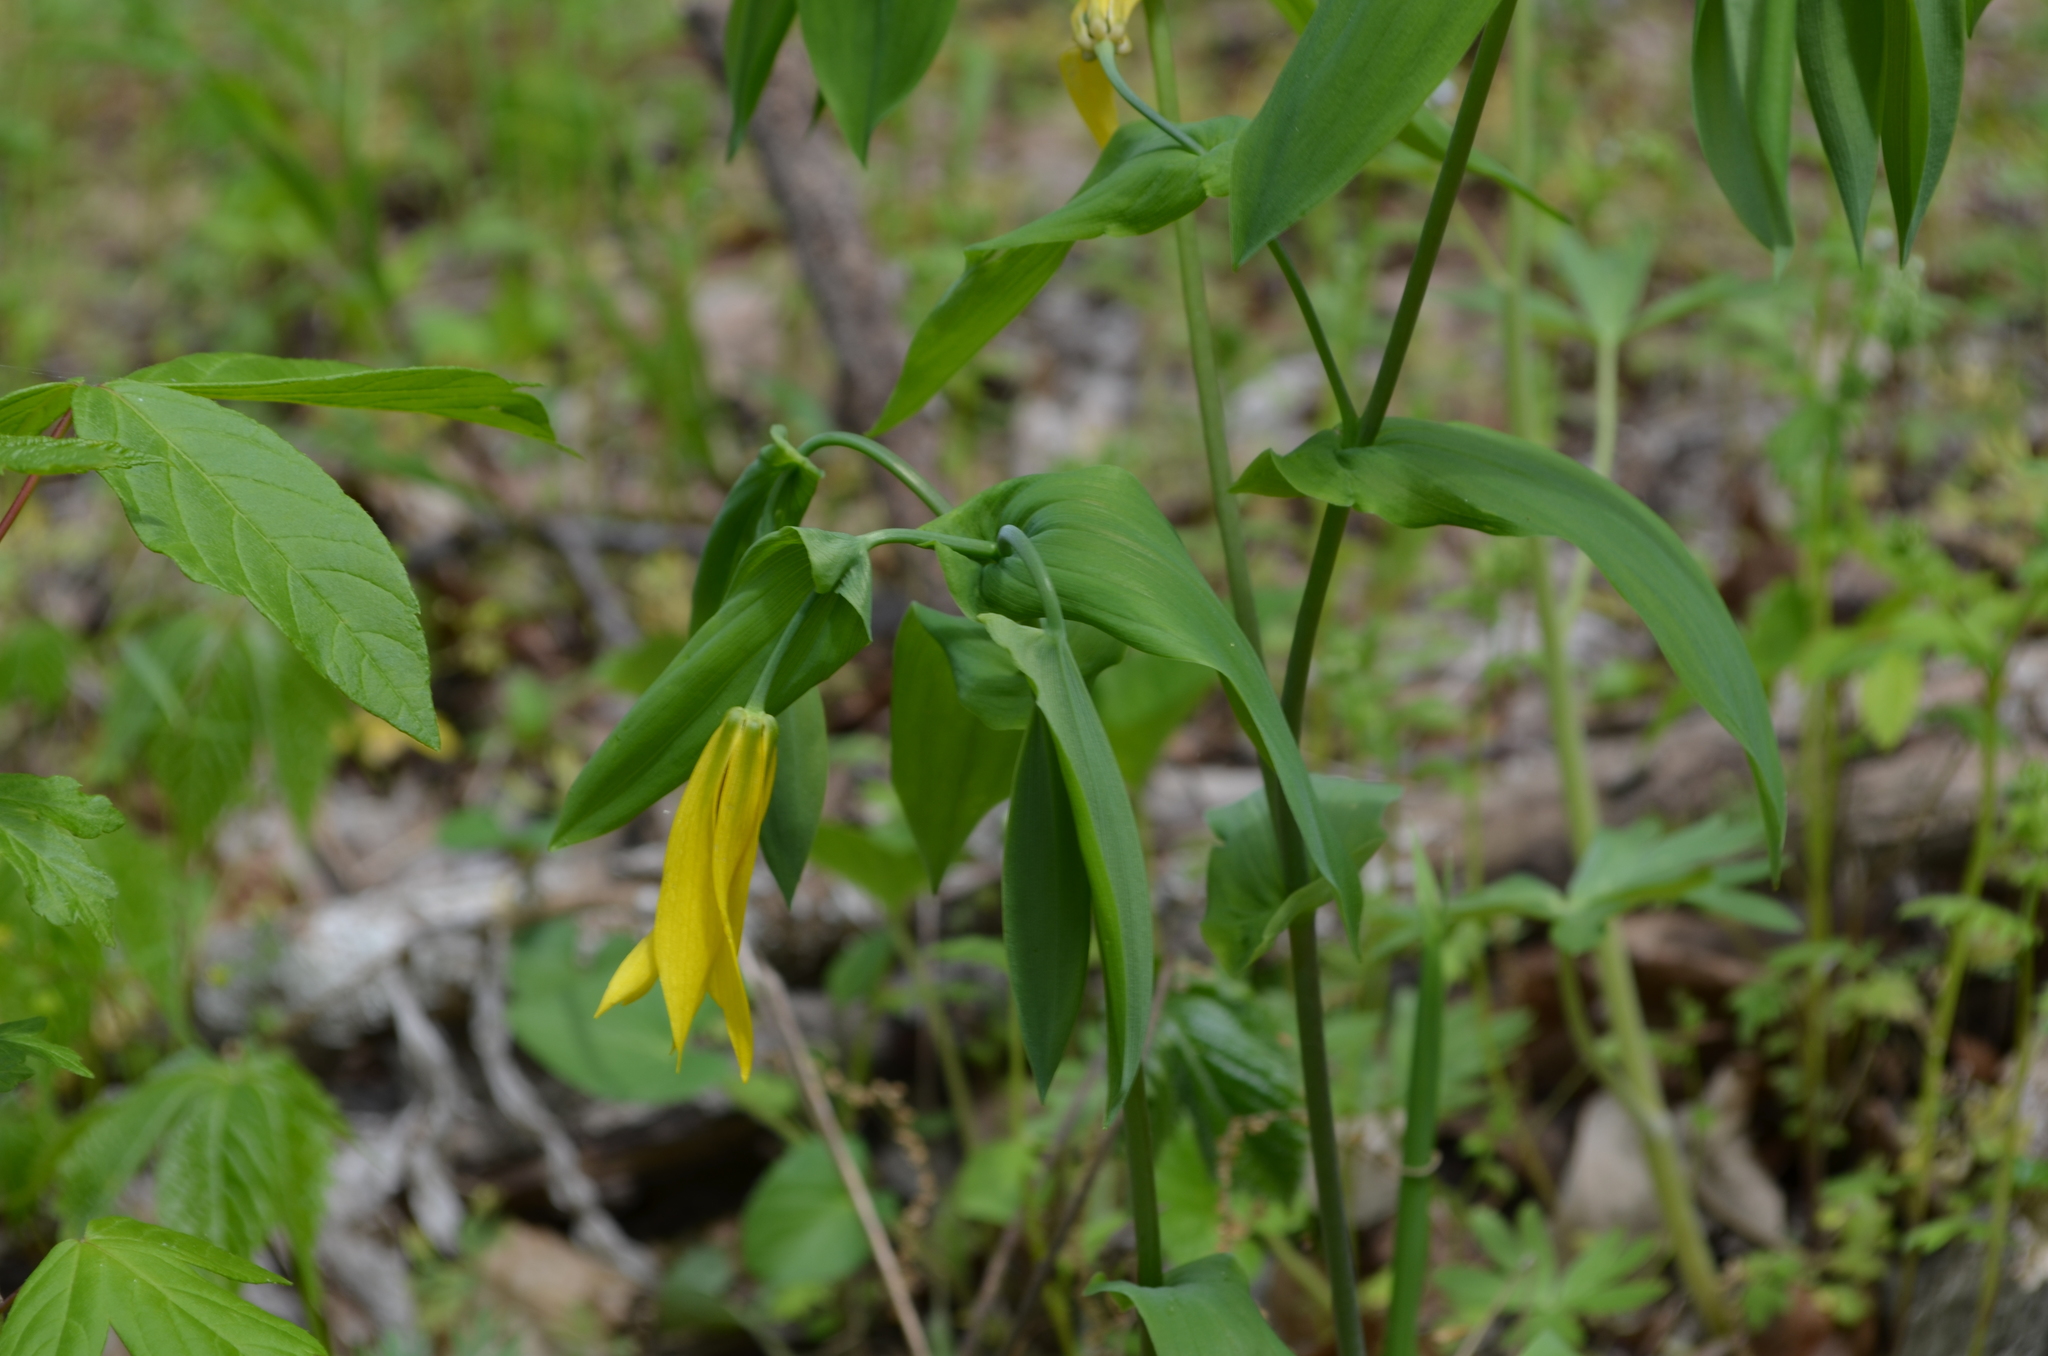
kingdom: Plantae
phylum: Tracheophyta
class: Liliopsida
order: Liliales
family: Colchicaceae
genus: Uvularia
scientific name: Uvularia grandiflora
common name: Bellwort
